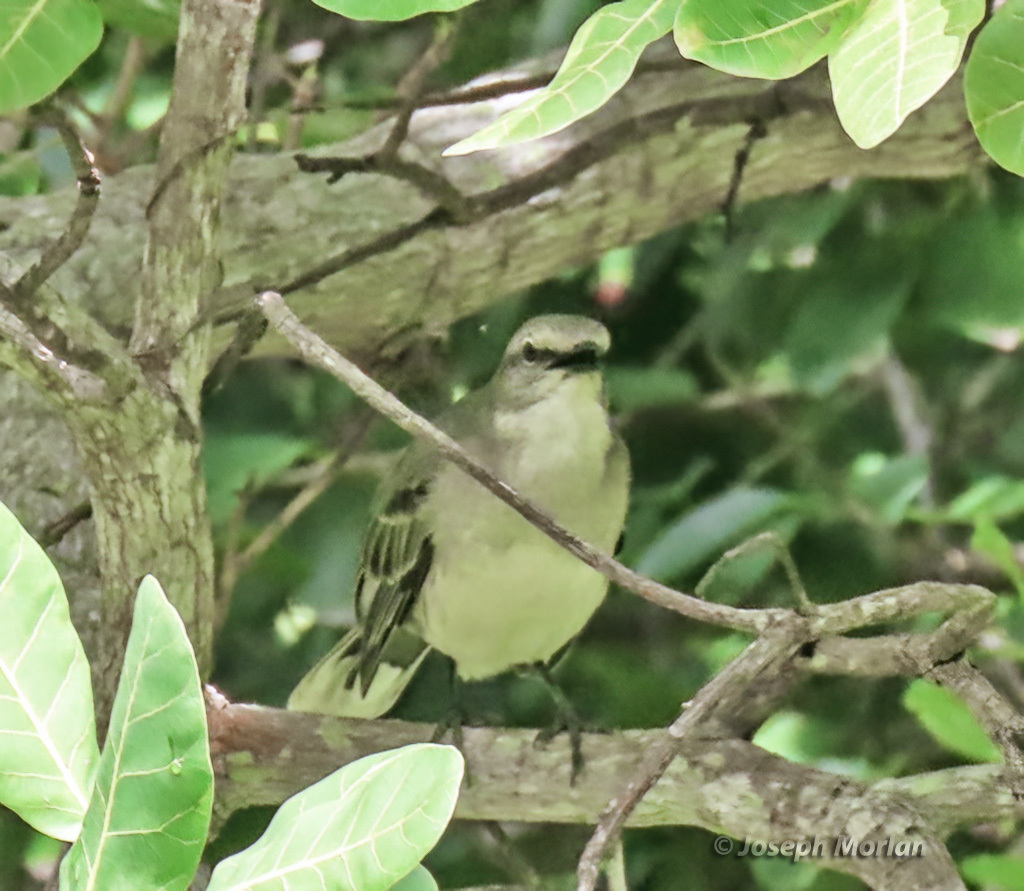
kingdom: Animalia
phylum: Chordata
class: Aves
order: Passeriformes
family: Mimidae
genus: Mimus
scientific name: Mimus gilvus
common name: Tropical mockingbird
